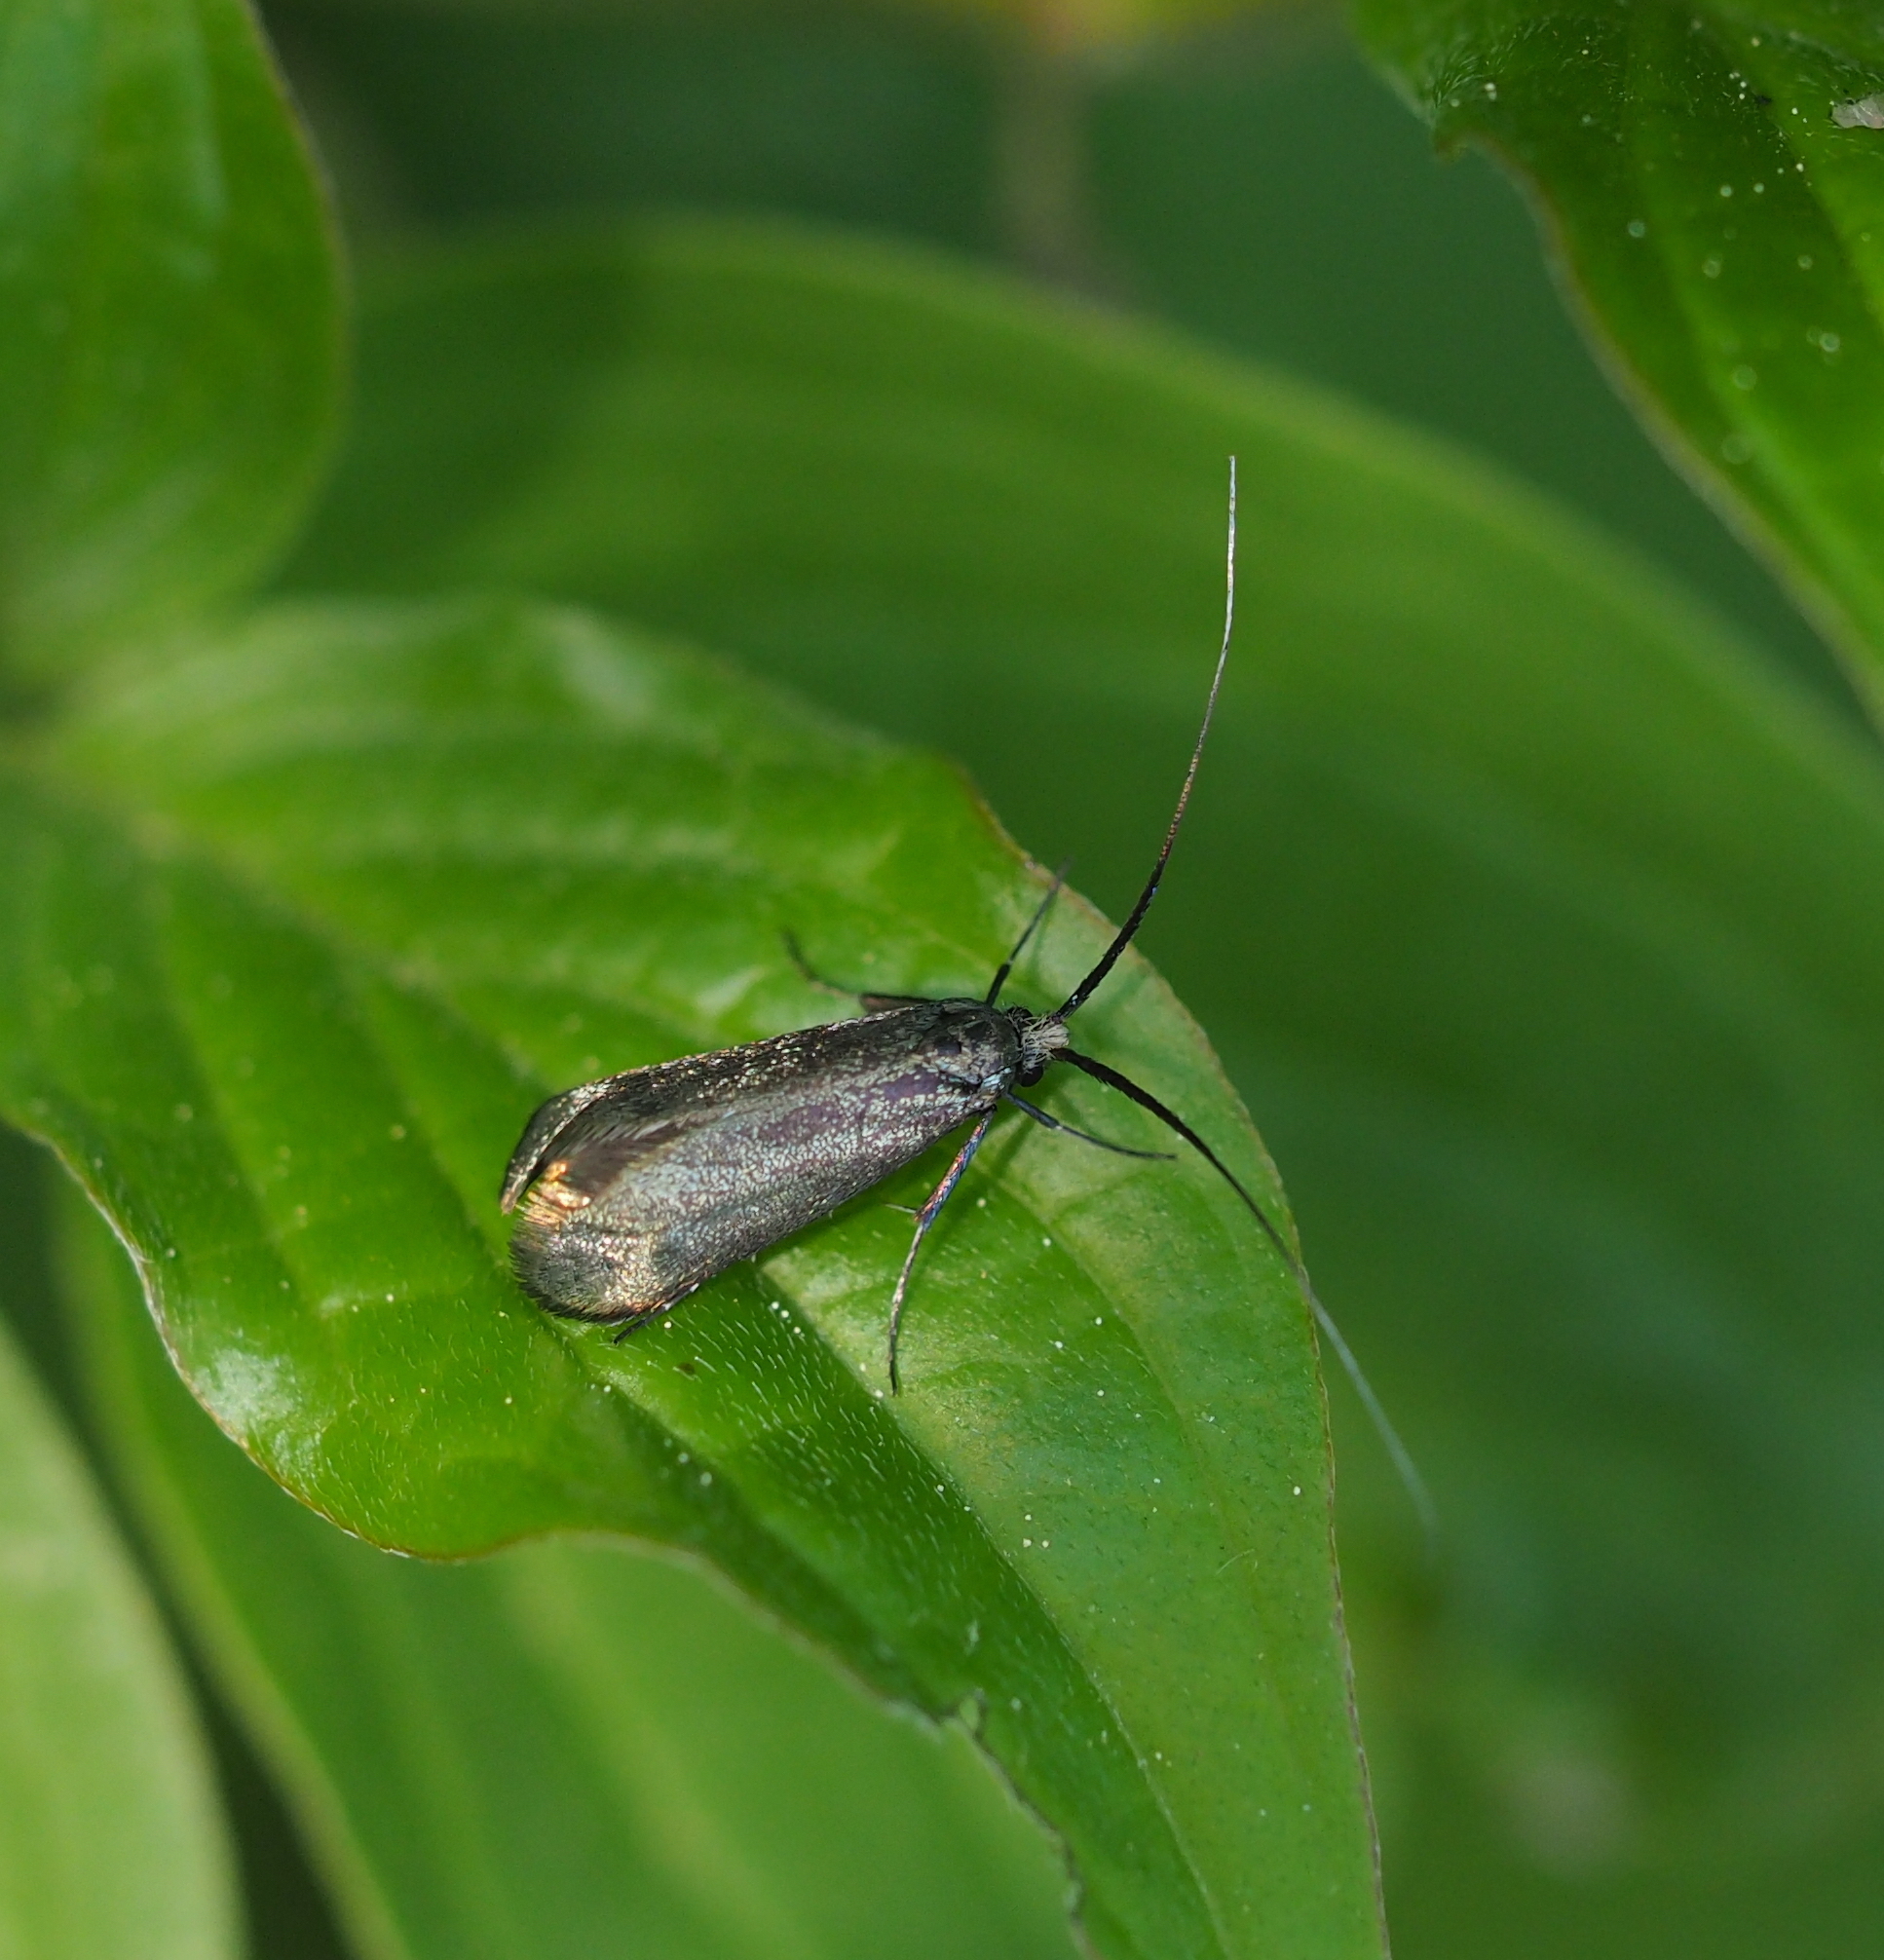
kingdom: Animalia
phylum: Arthropoda
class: Insecta
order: Lepidoptera
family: Adelidae
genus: Adela
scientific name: Adela viridella
